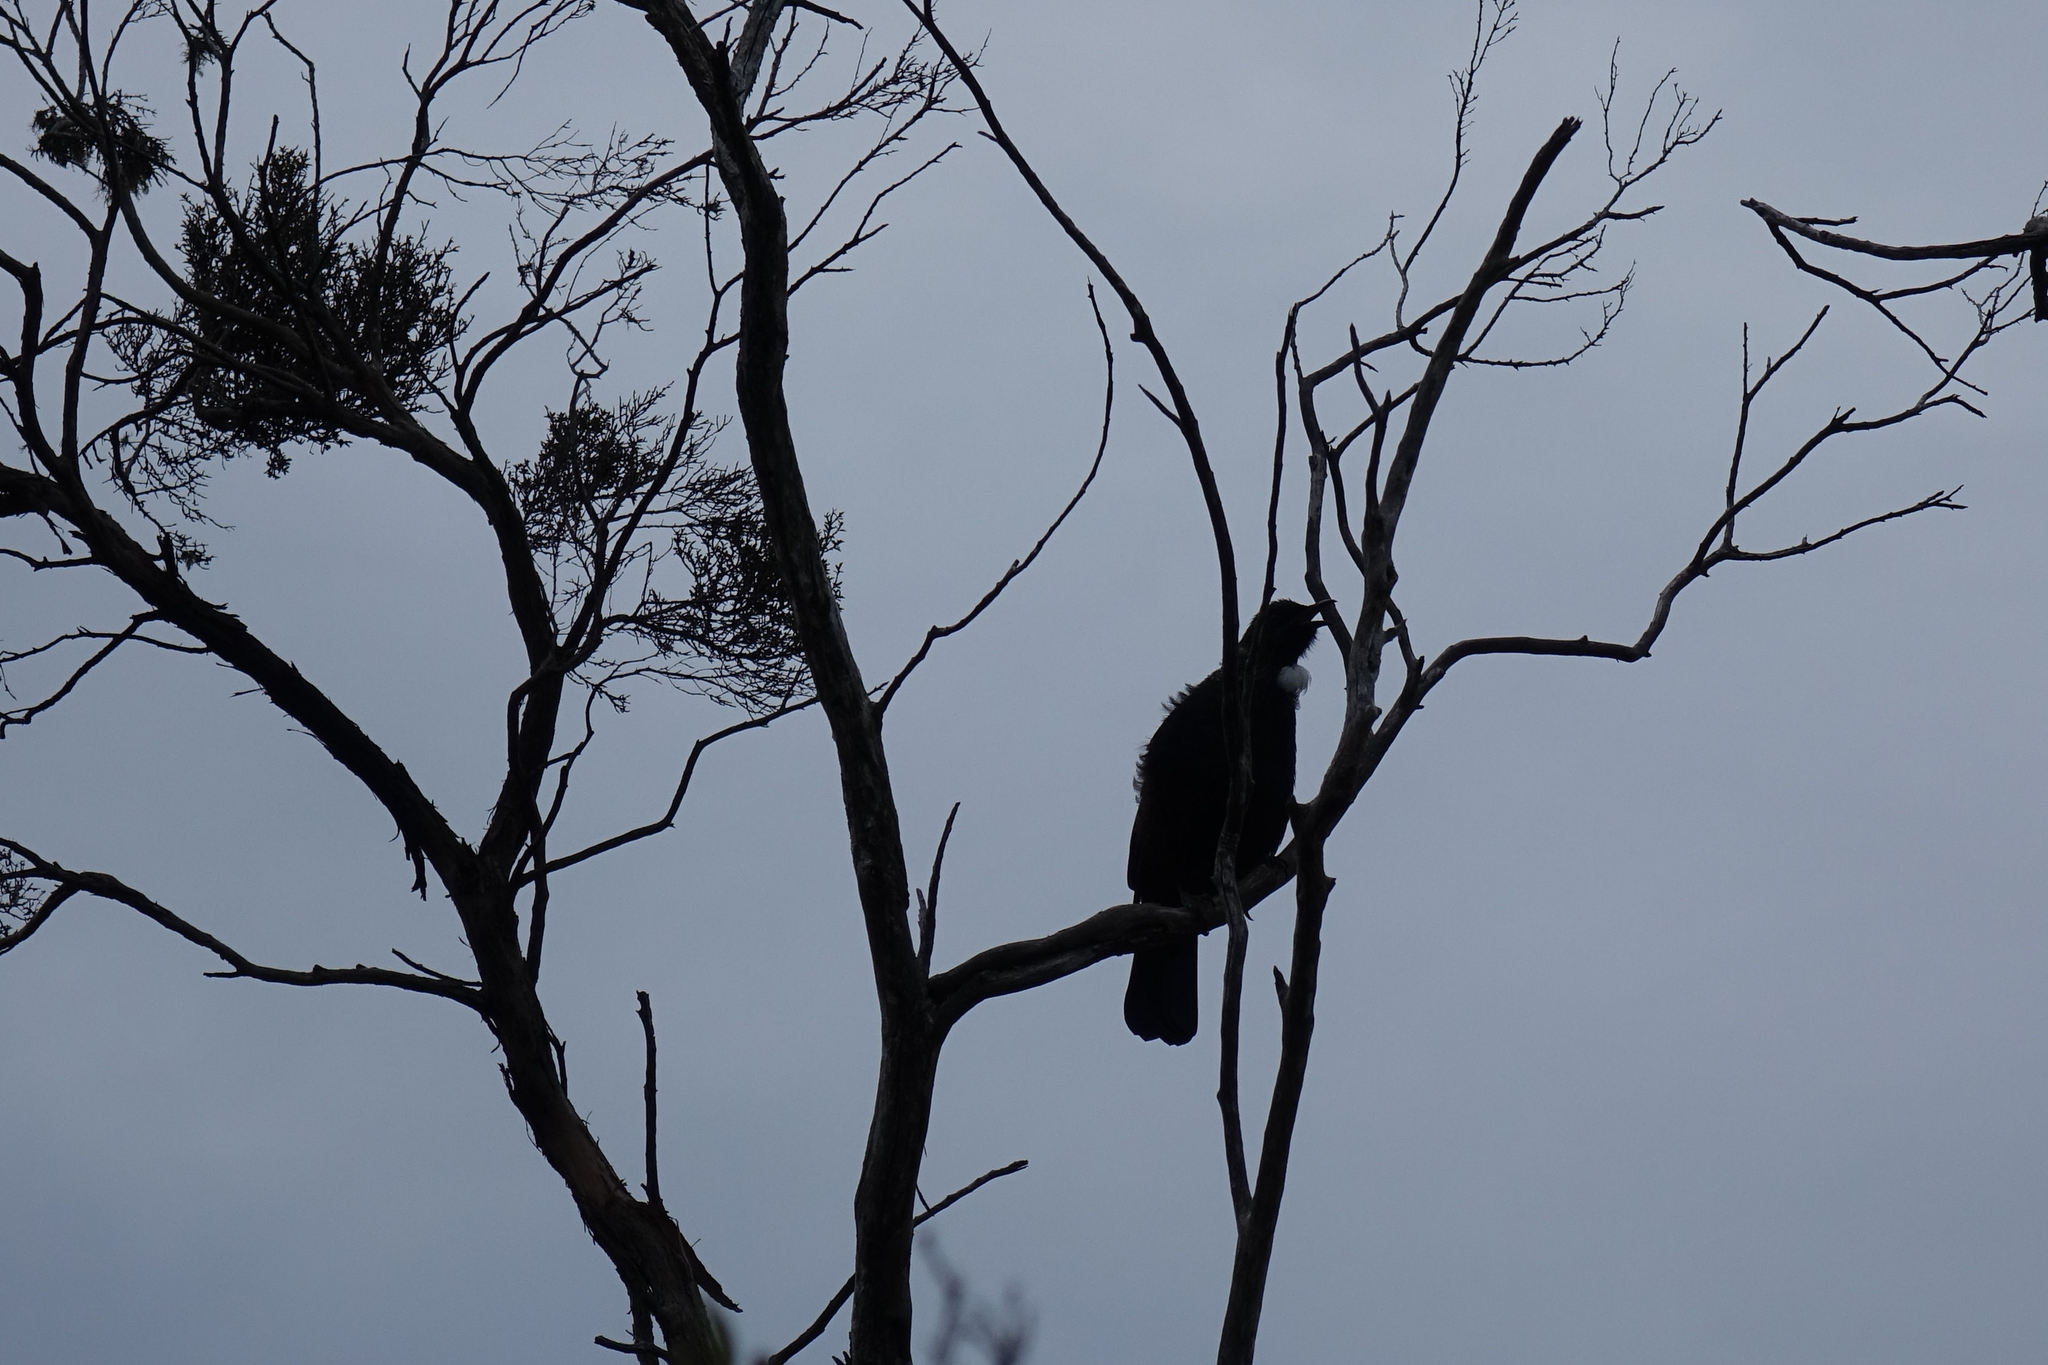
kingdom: Animalia
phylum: Chordata
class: Aves
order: Passeriformes
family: Meliphagidae
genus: Prosthemadera
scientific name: Prosthemadera novaeseelandiae
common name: Tui
